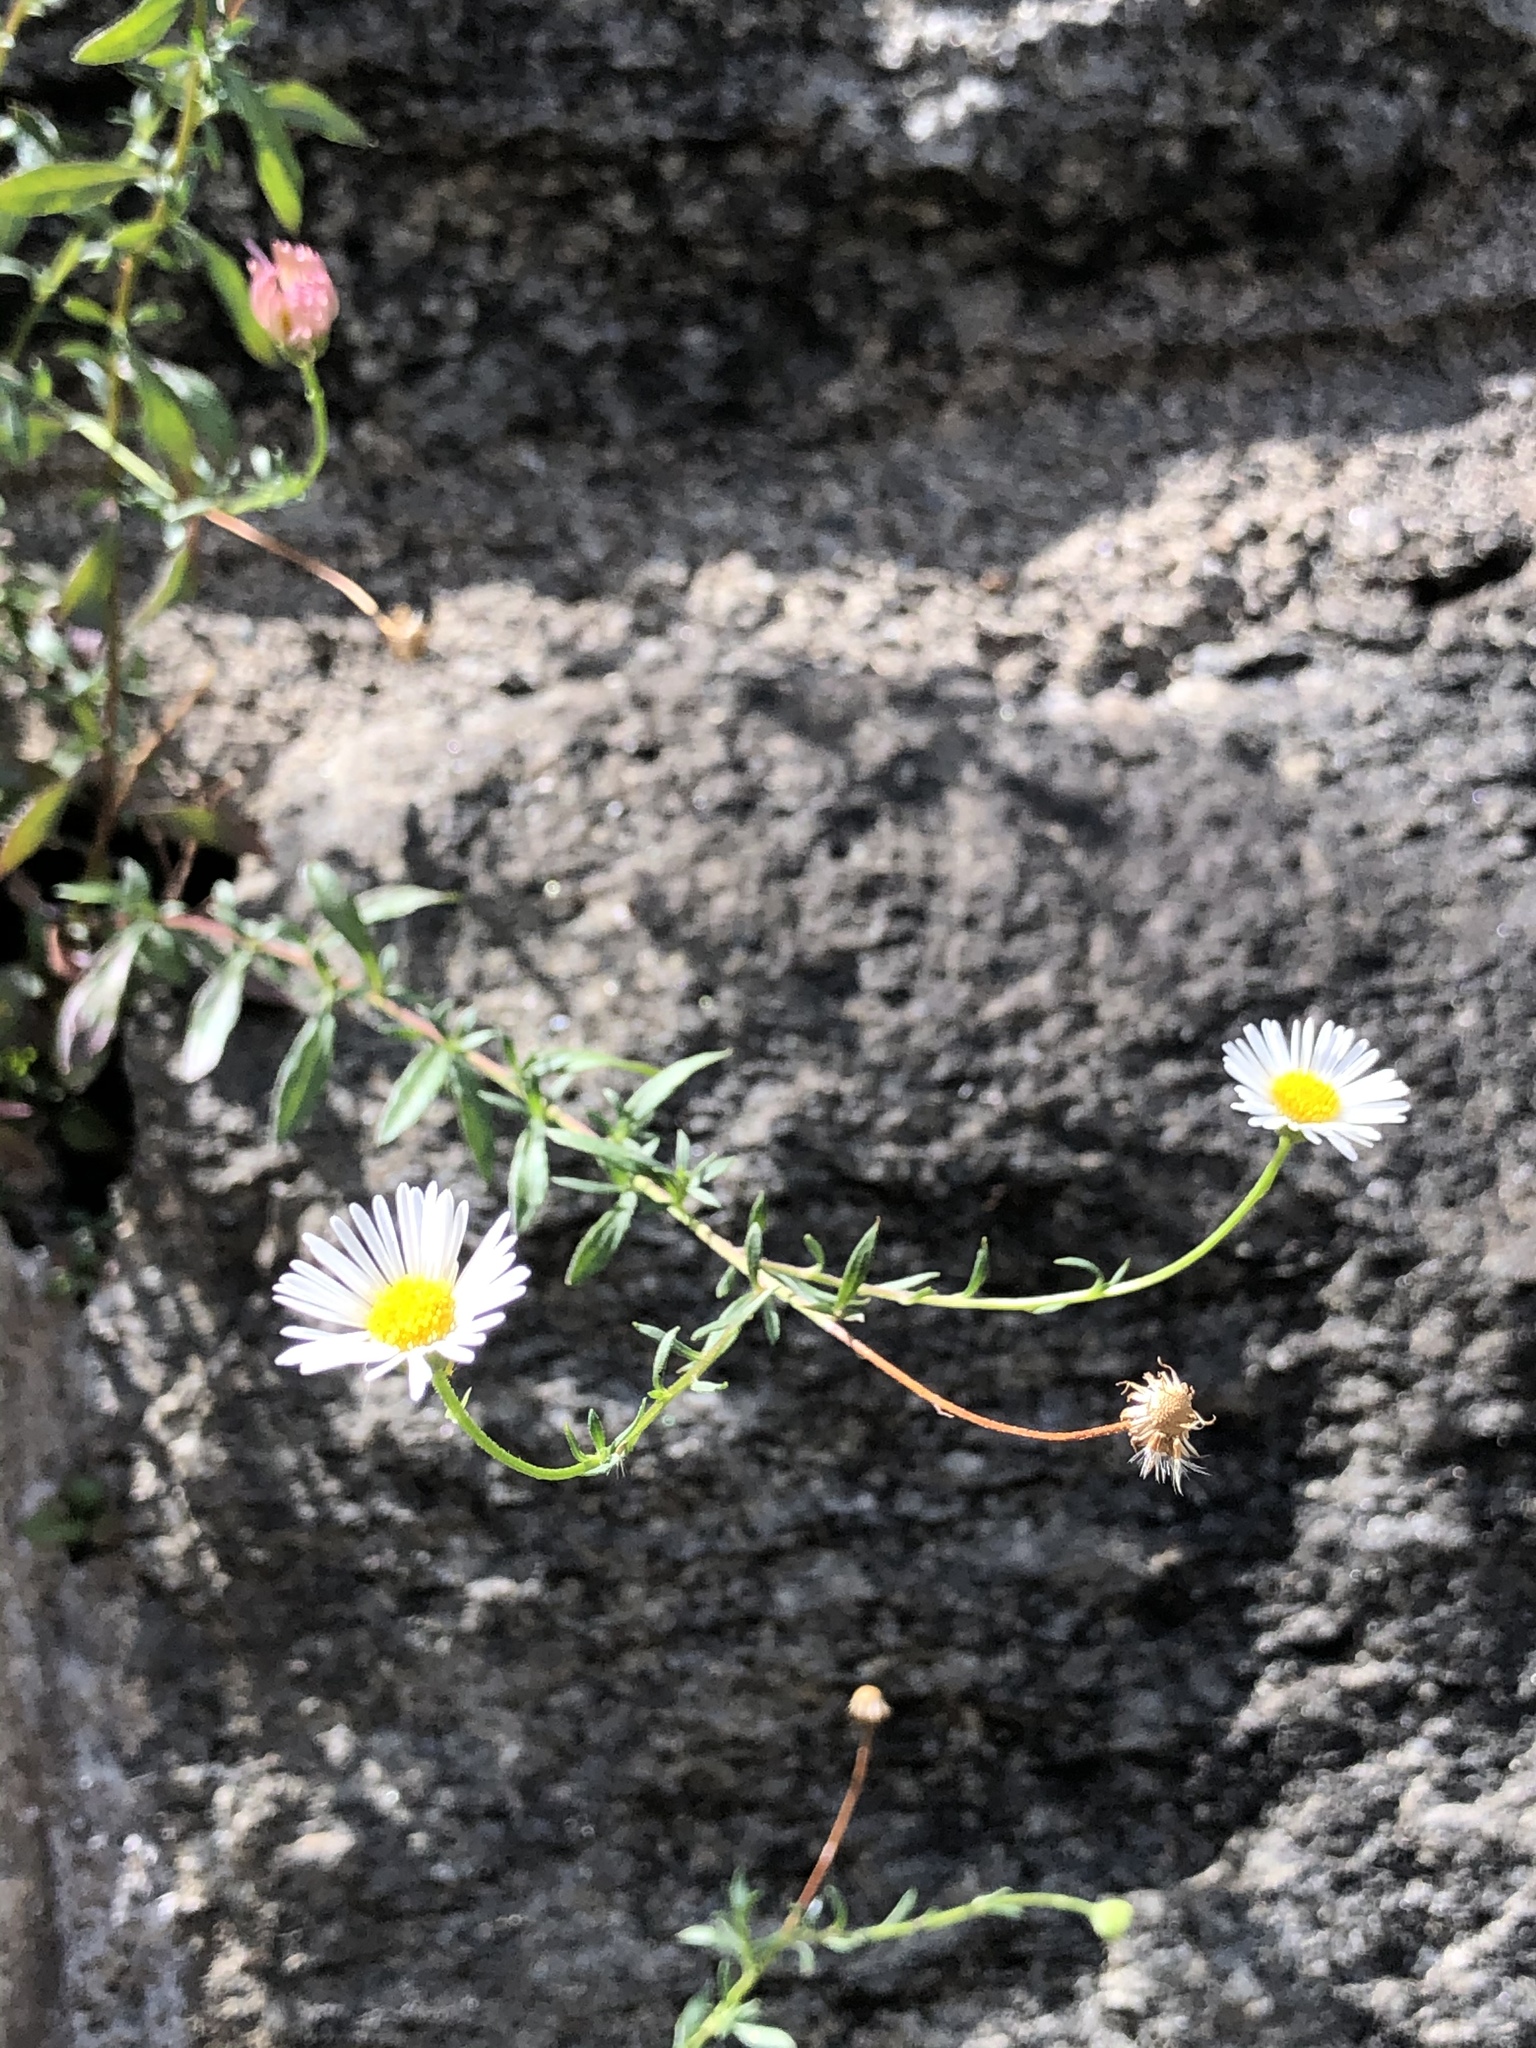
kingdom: Plantae
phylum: Tracheophyta
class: Magnoliopsida
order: Asterales
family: Asteraceae
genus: Erigeron
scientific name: Erigeron karvinskianus
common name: Mexican fleabane
